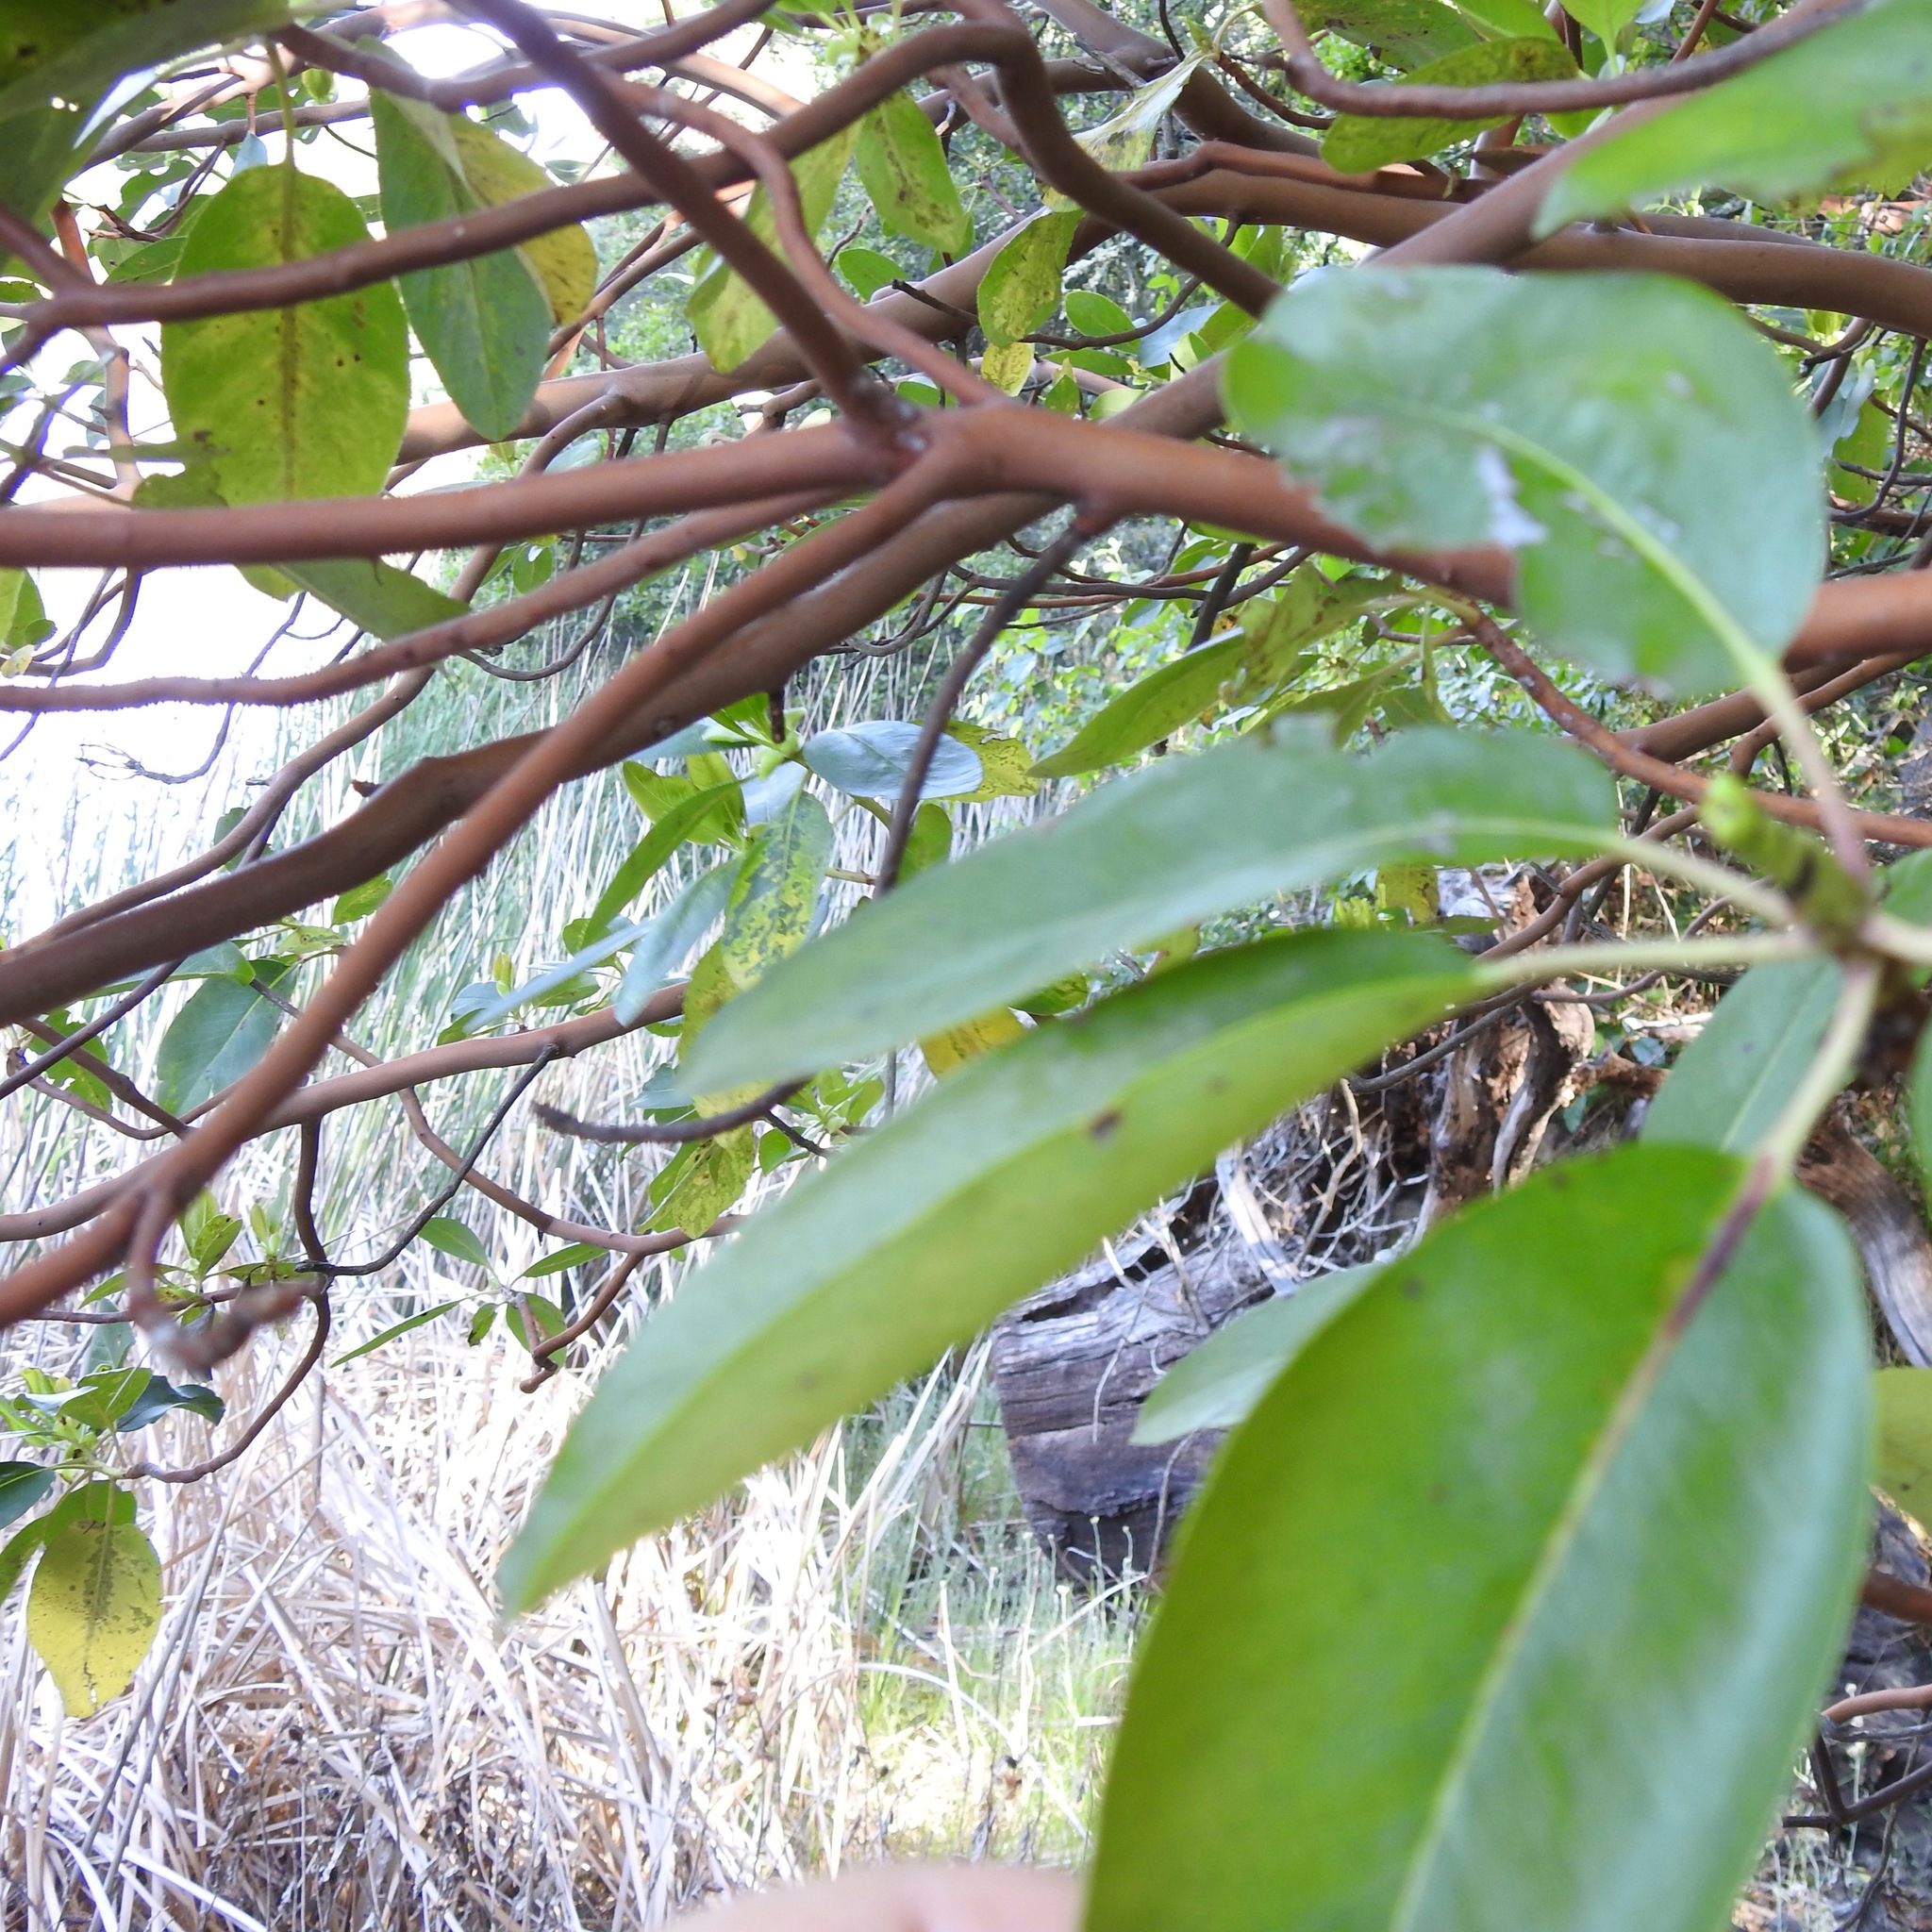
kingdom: Plantae
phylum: Tracheophyta
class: Magnoliopsida
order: Ericales
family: Ericaceae
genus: Arbutus
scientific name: Arbutus menziesii
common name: Pacific madrone
